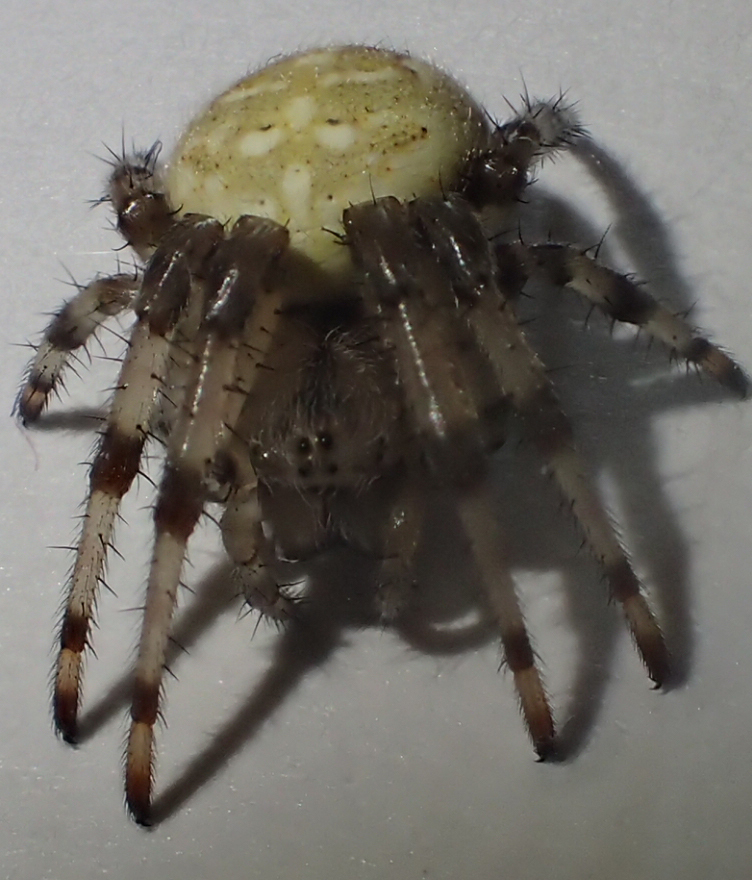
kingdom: Animalia
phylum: Arthropoda
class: Arachnida
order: Araneae
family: Araneidae
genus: Araneus
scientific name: Araneus trifolium
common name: Shamrock orbweaver
